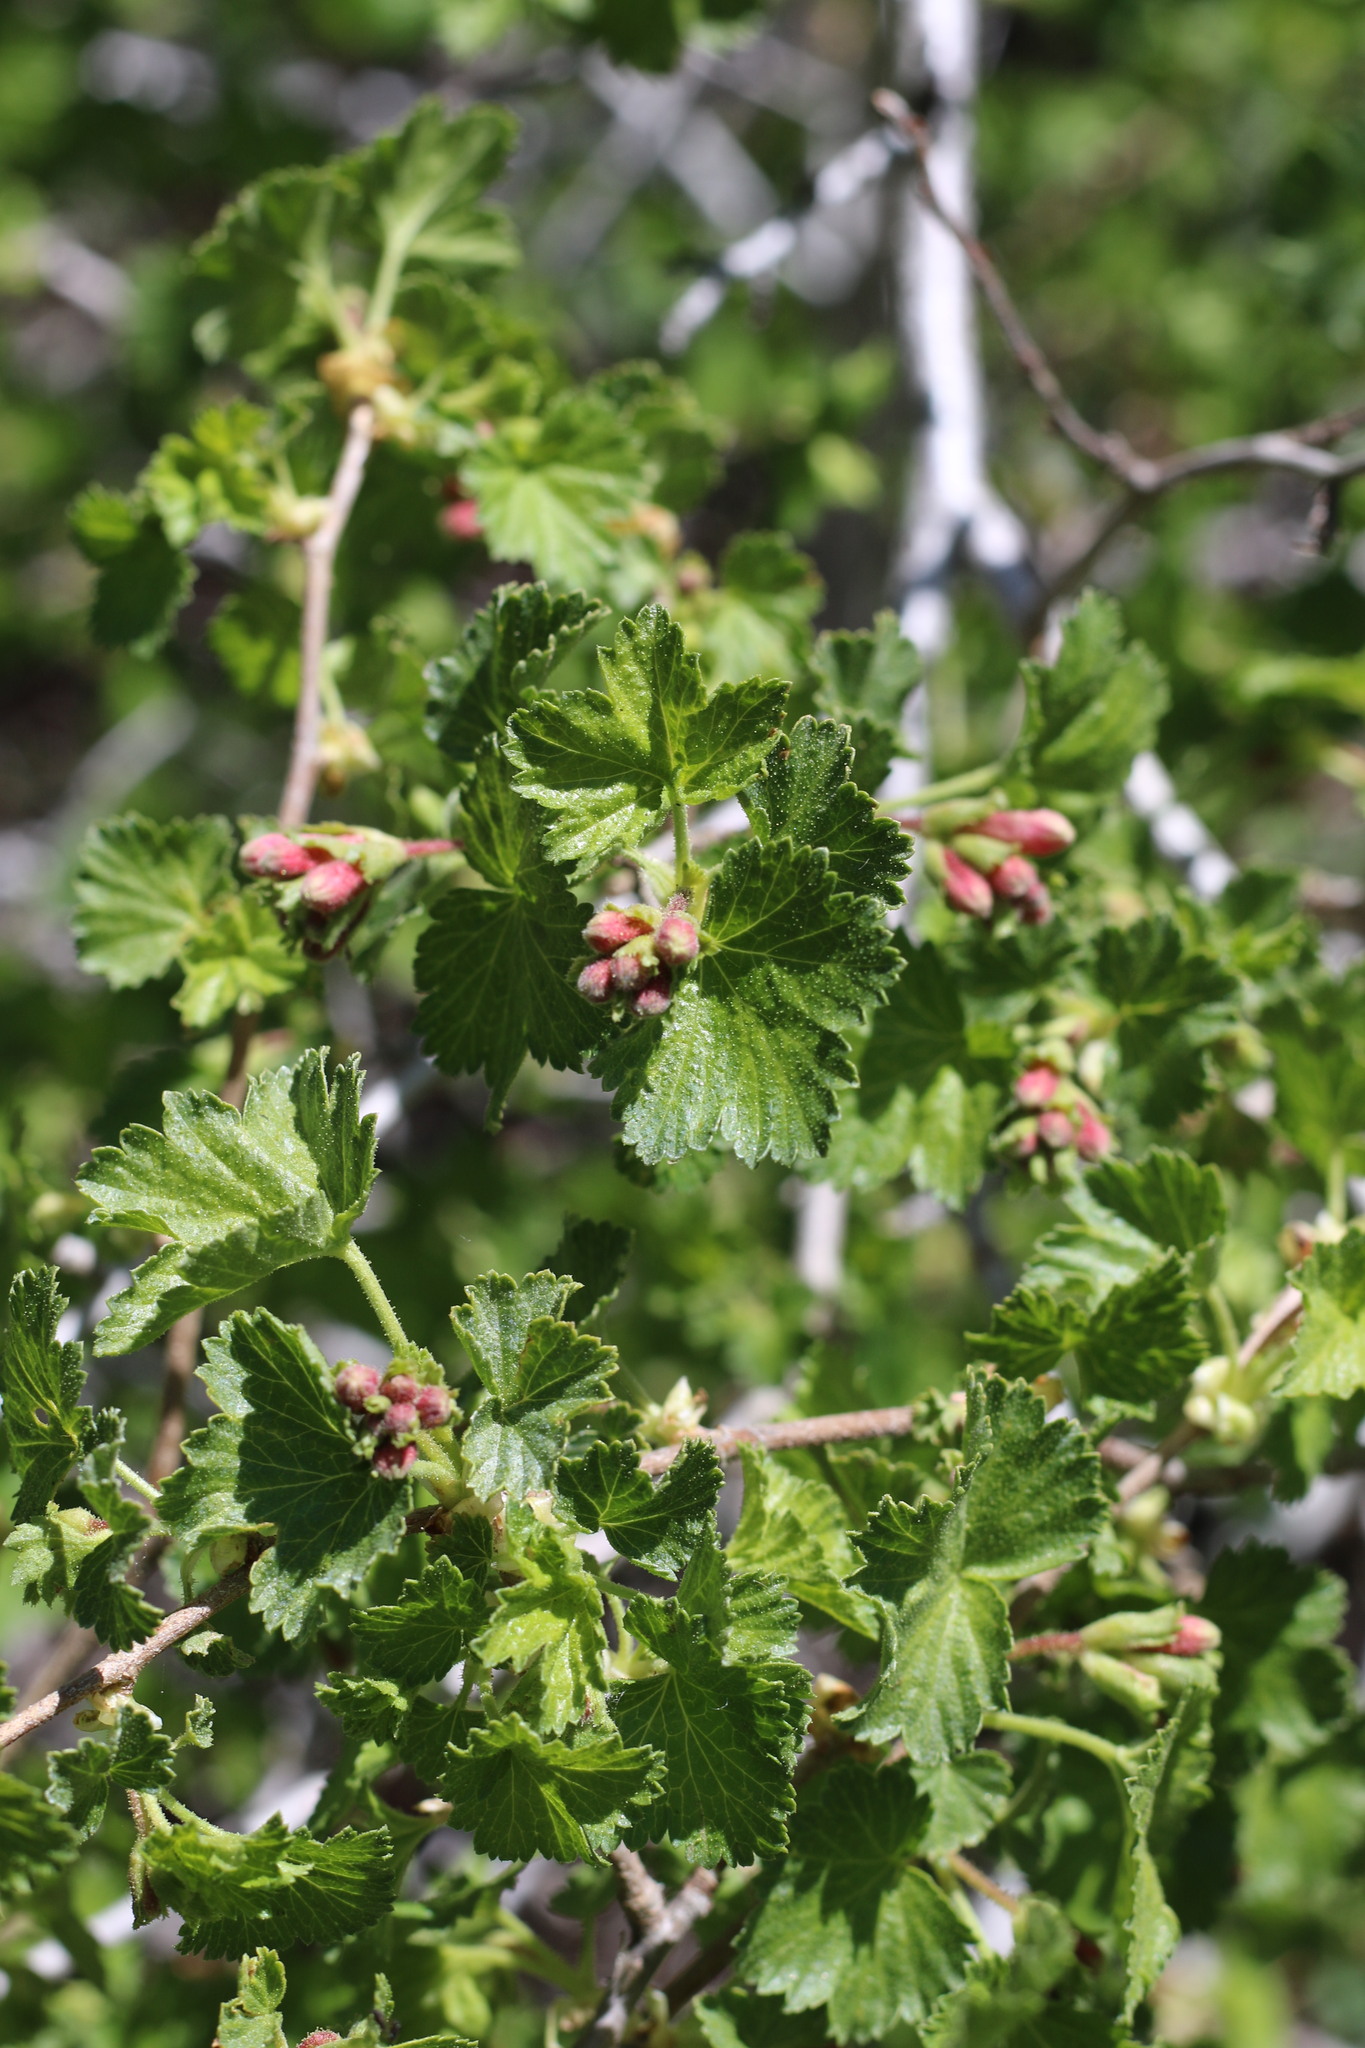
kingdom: Plantae
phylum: Tracheophyta
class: Magnoliopsida
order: Saxifragales
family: Grossulariaceae
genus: Ribes
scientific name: Ribes cereum
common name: Wax currant
